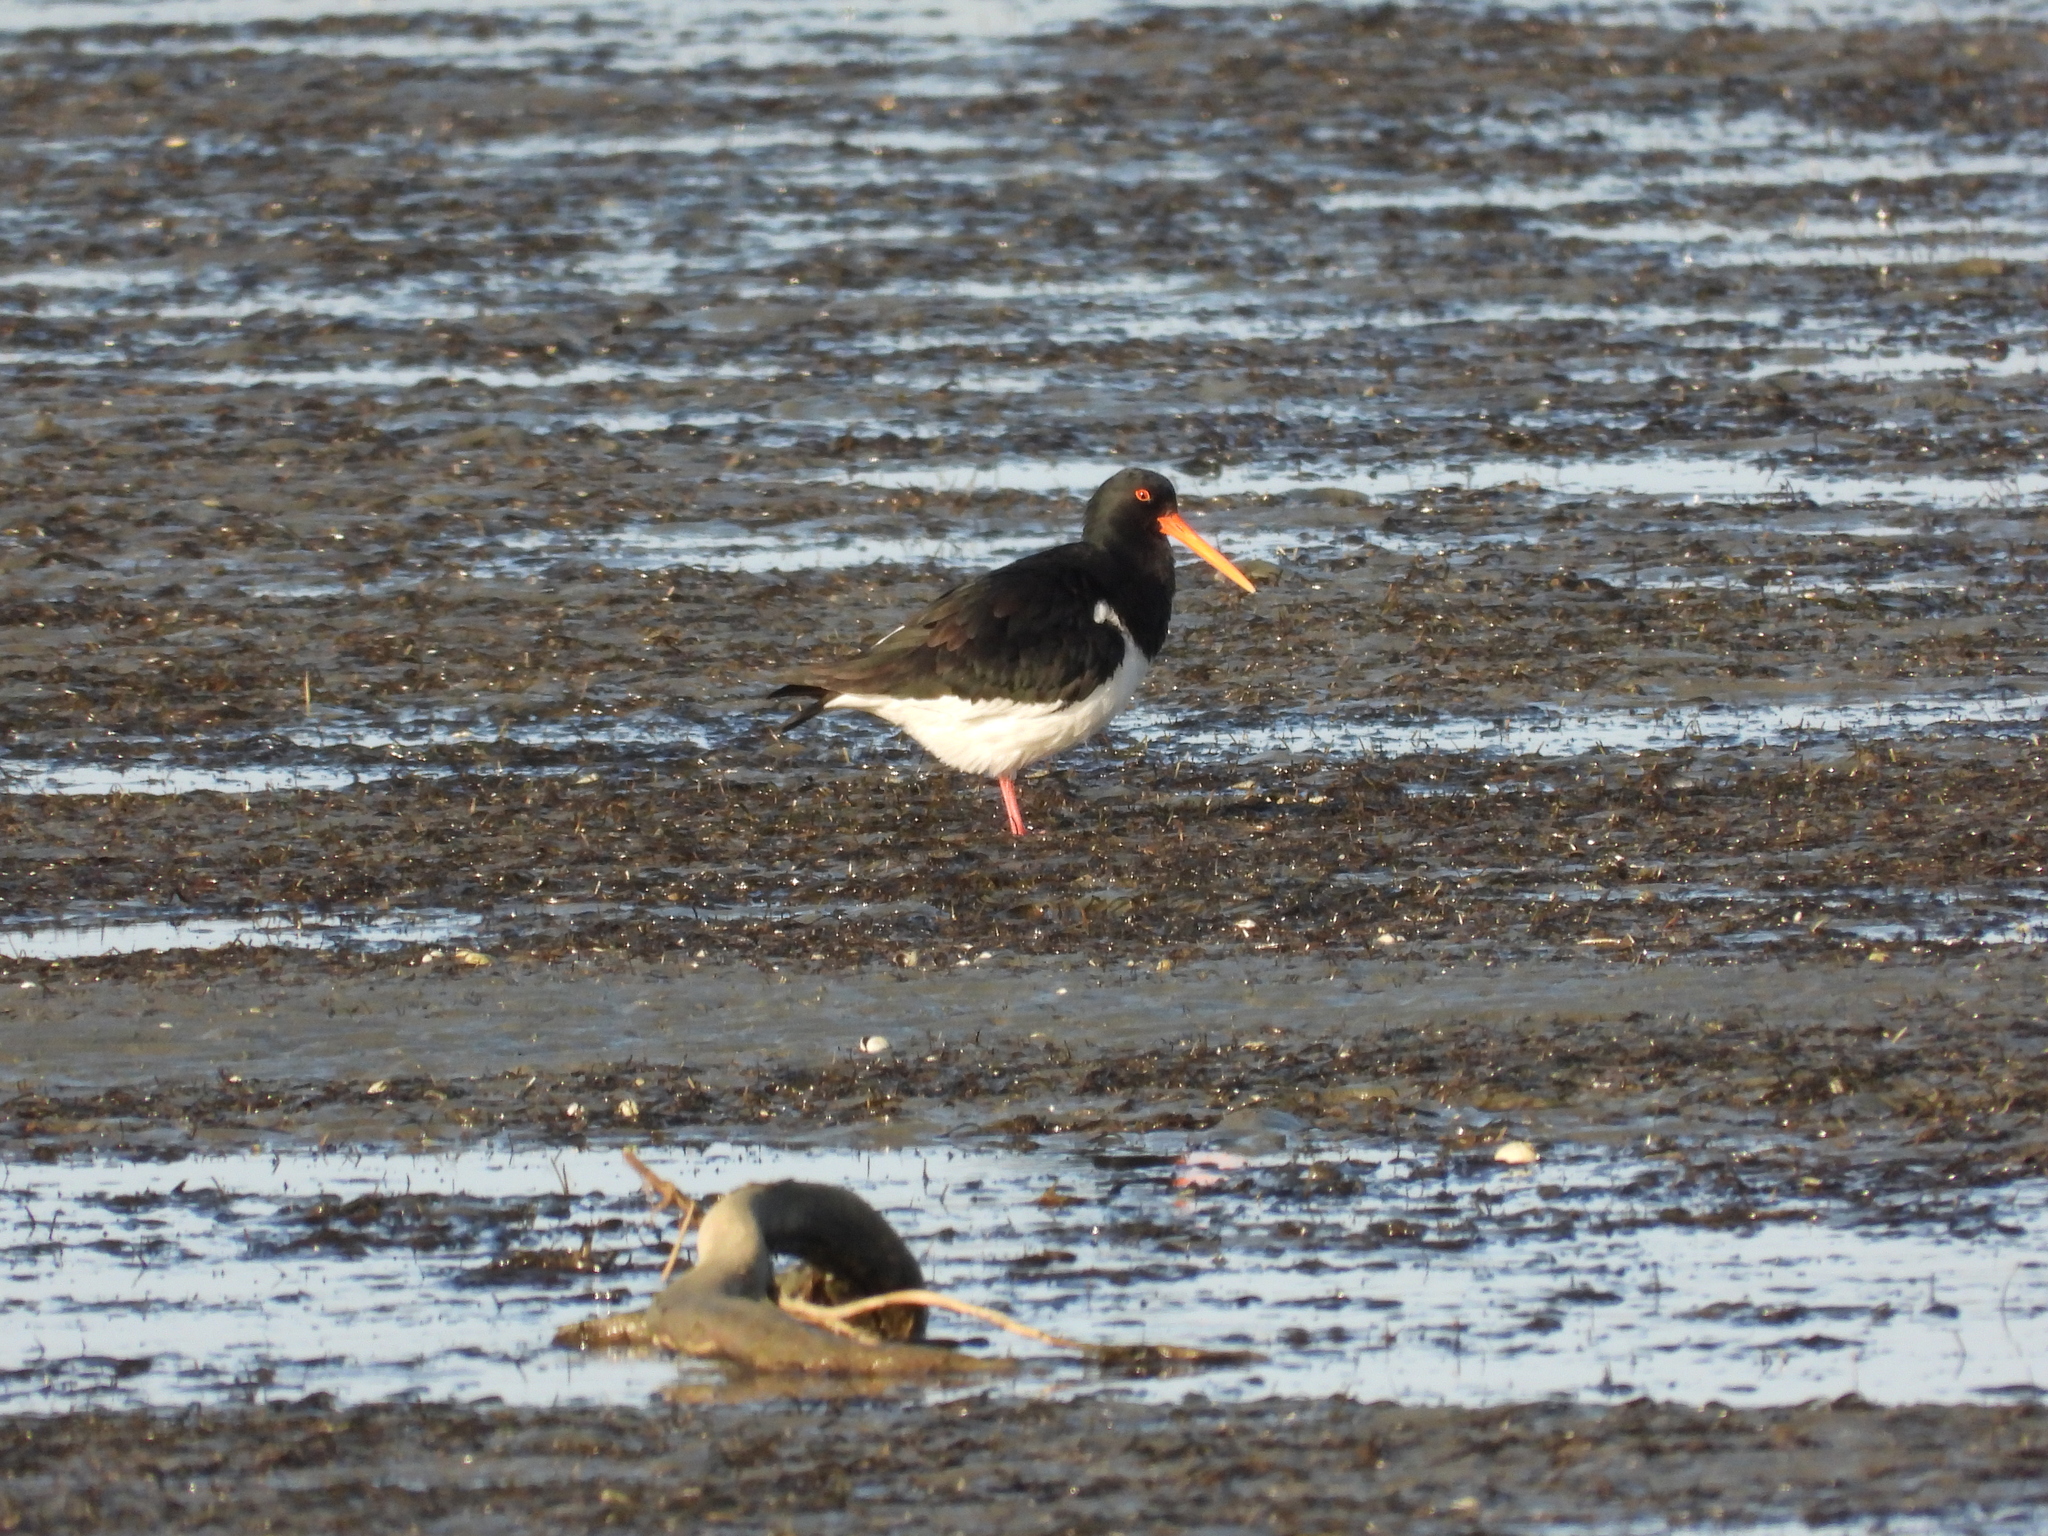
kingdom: Animalia
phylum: Chordata
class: Aves
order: Charadriiformes
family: Haematopodidae
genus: Haematopus
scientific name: Haematopus finschi
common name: South island oystercatcher
